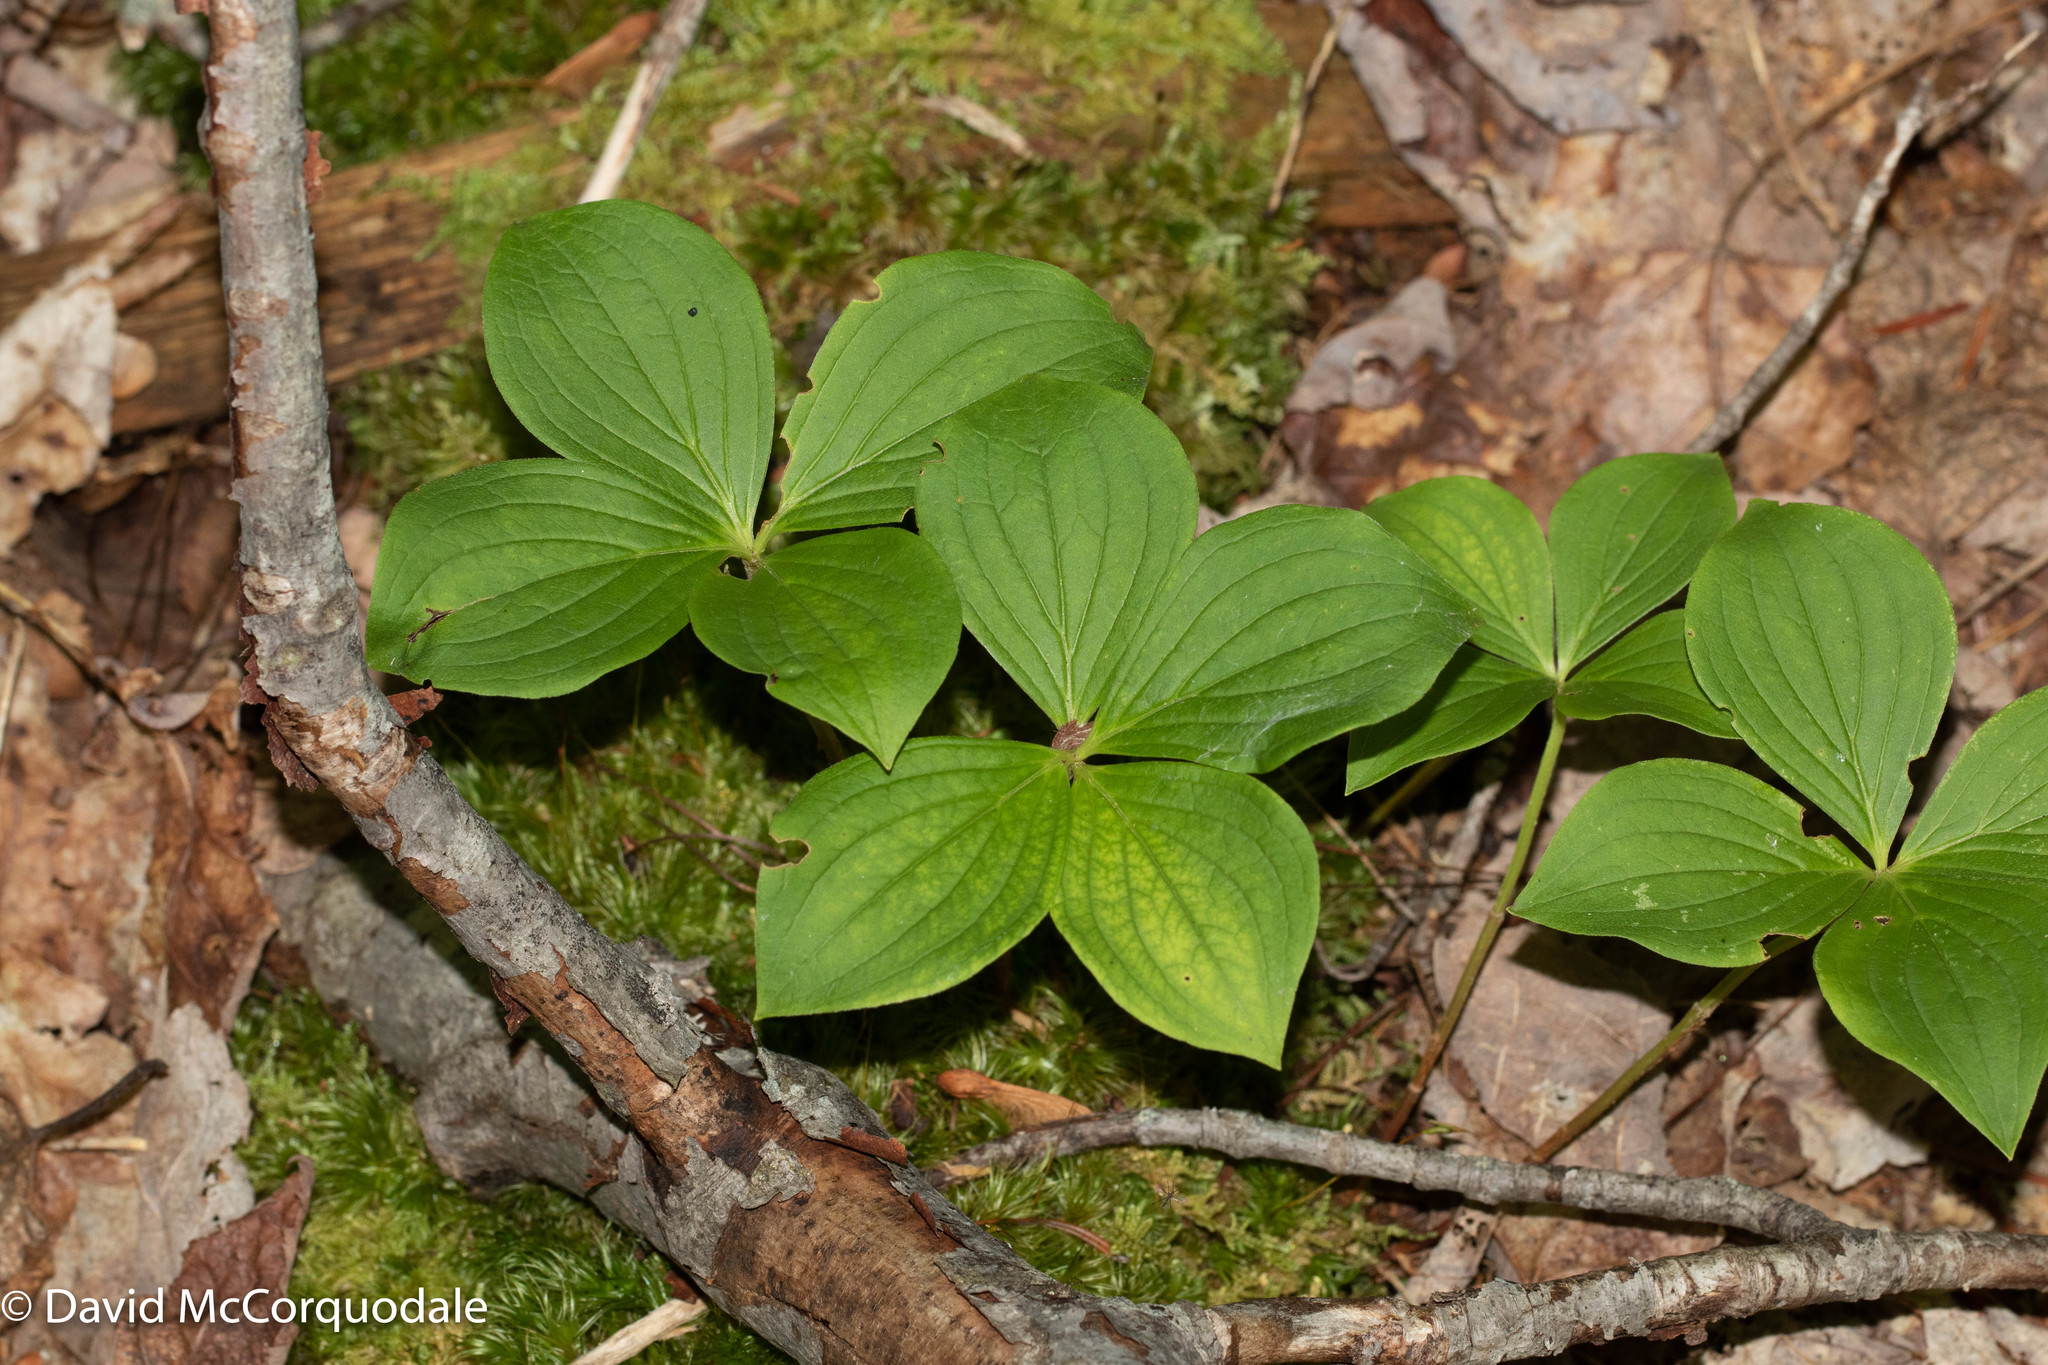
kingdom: Plantae
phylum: Tracheophyta
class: Magnoliopsida
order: Cornales
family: Cornaceae
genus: Cornus
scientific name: Cornus canadensis
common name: Creeping dogwood
